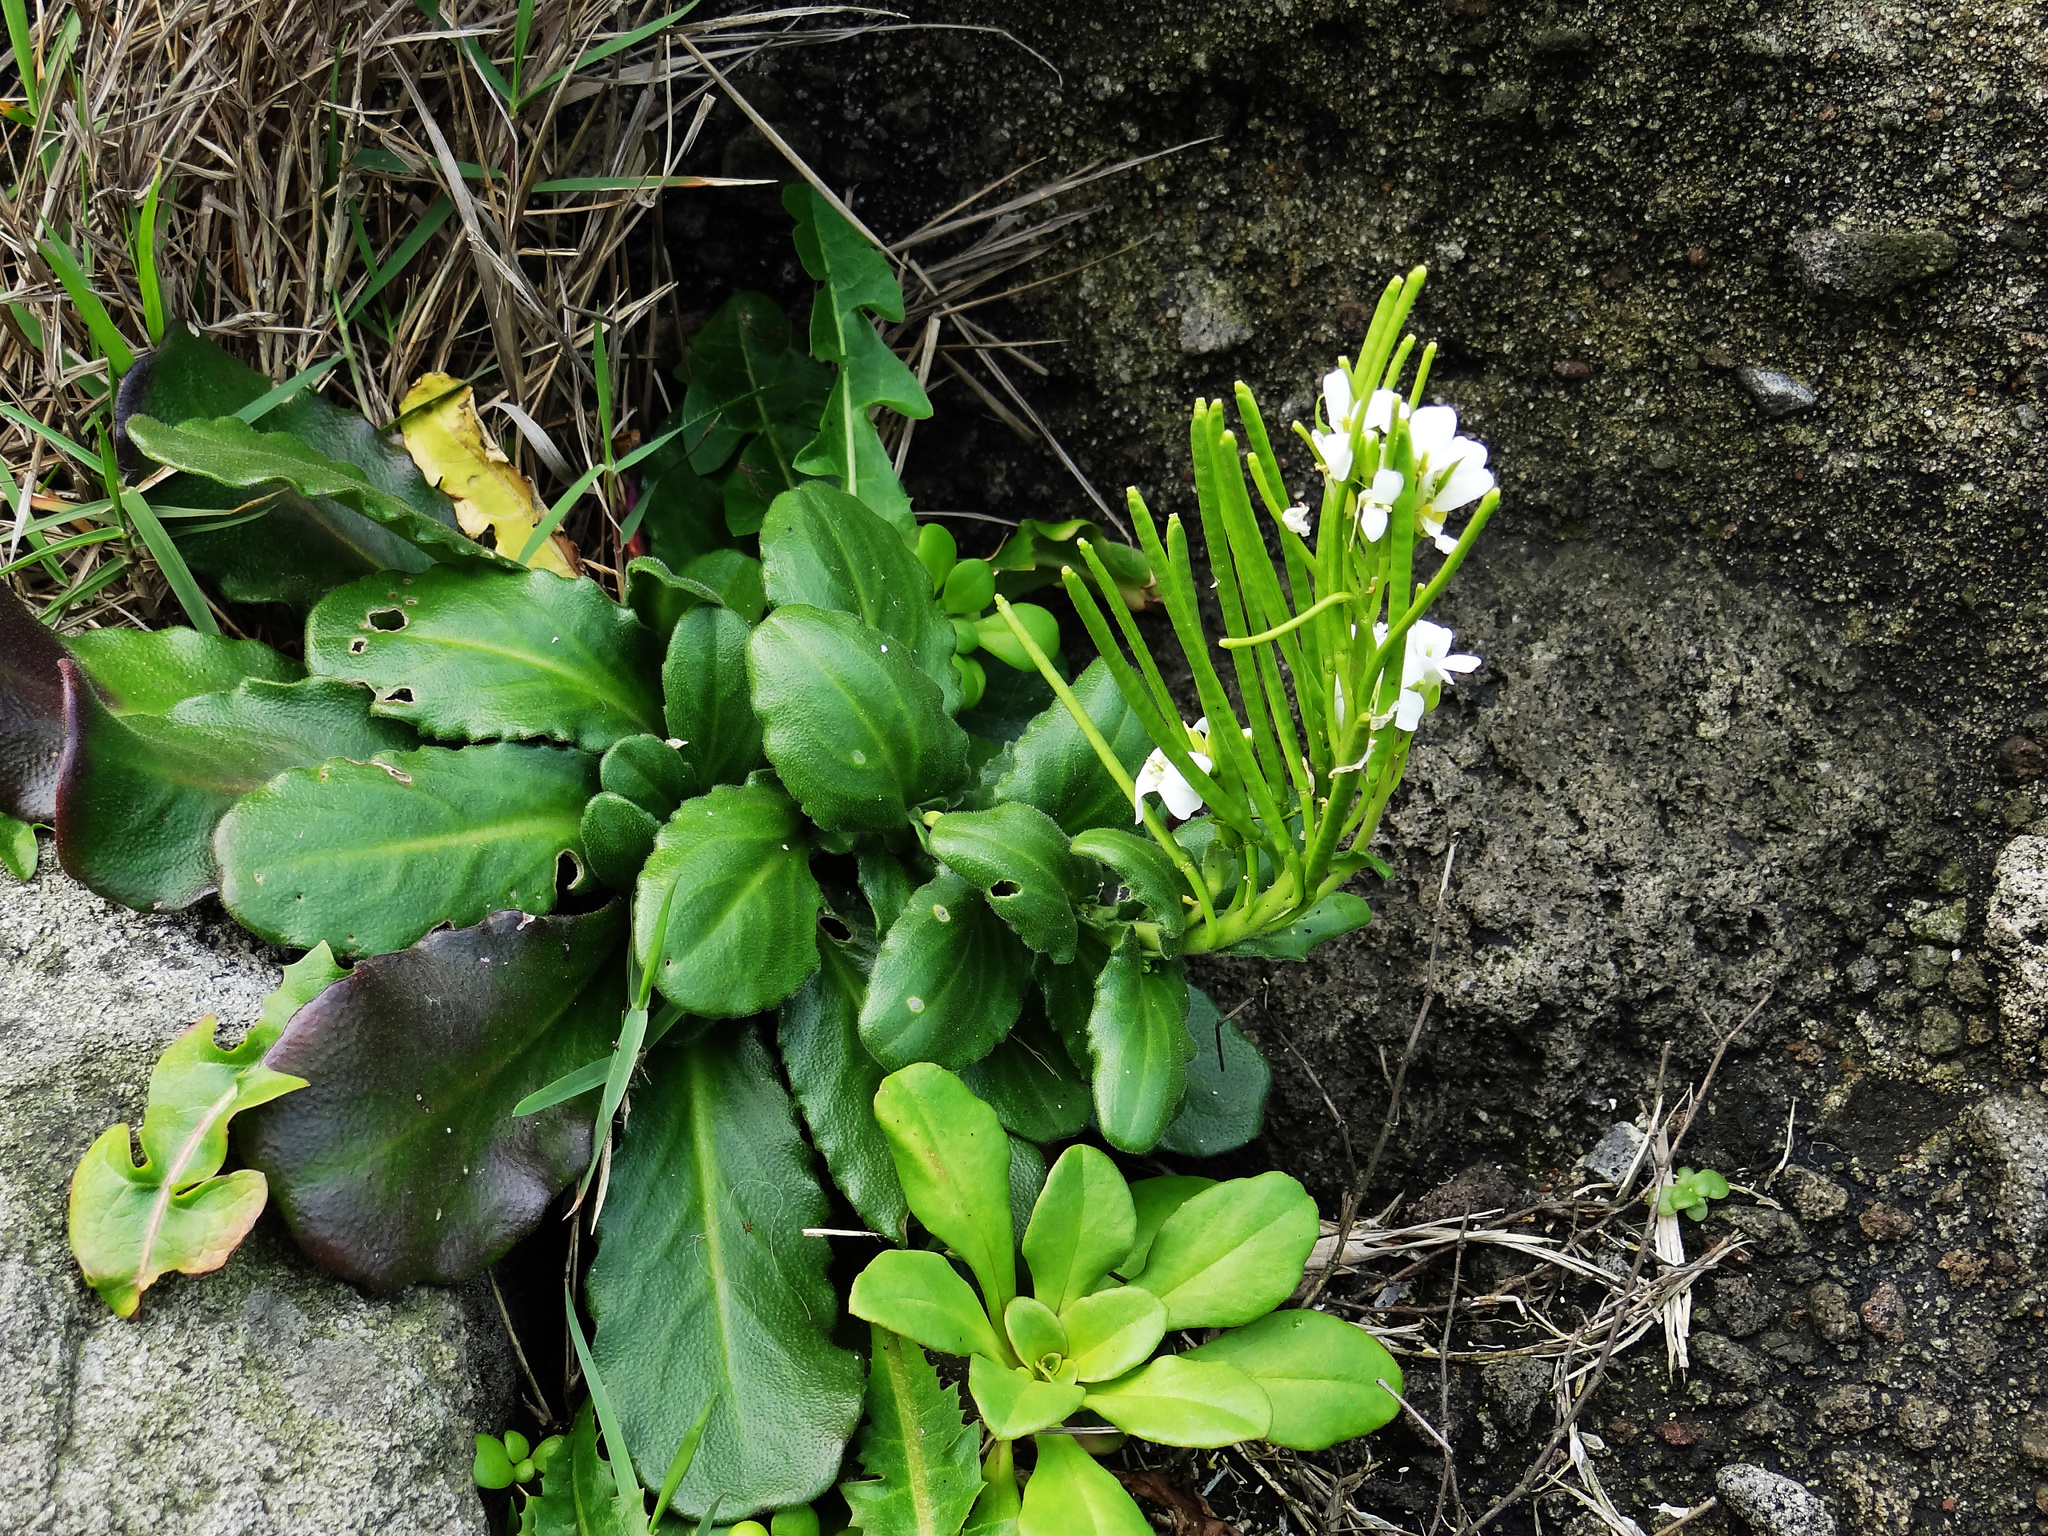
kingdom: Plantae
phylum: Tracheophyta
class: Magnoliopsida
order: Brassicales
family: Brassicaceae
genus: Arabis
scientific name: Arabis stelleri
